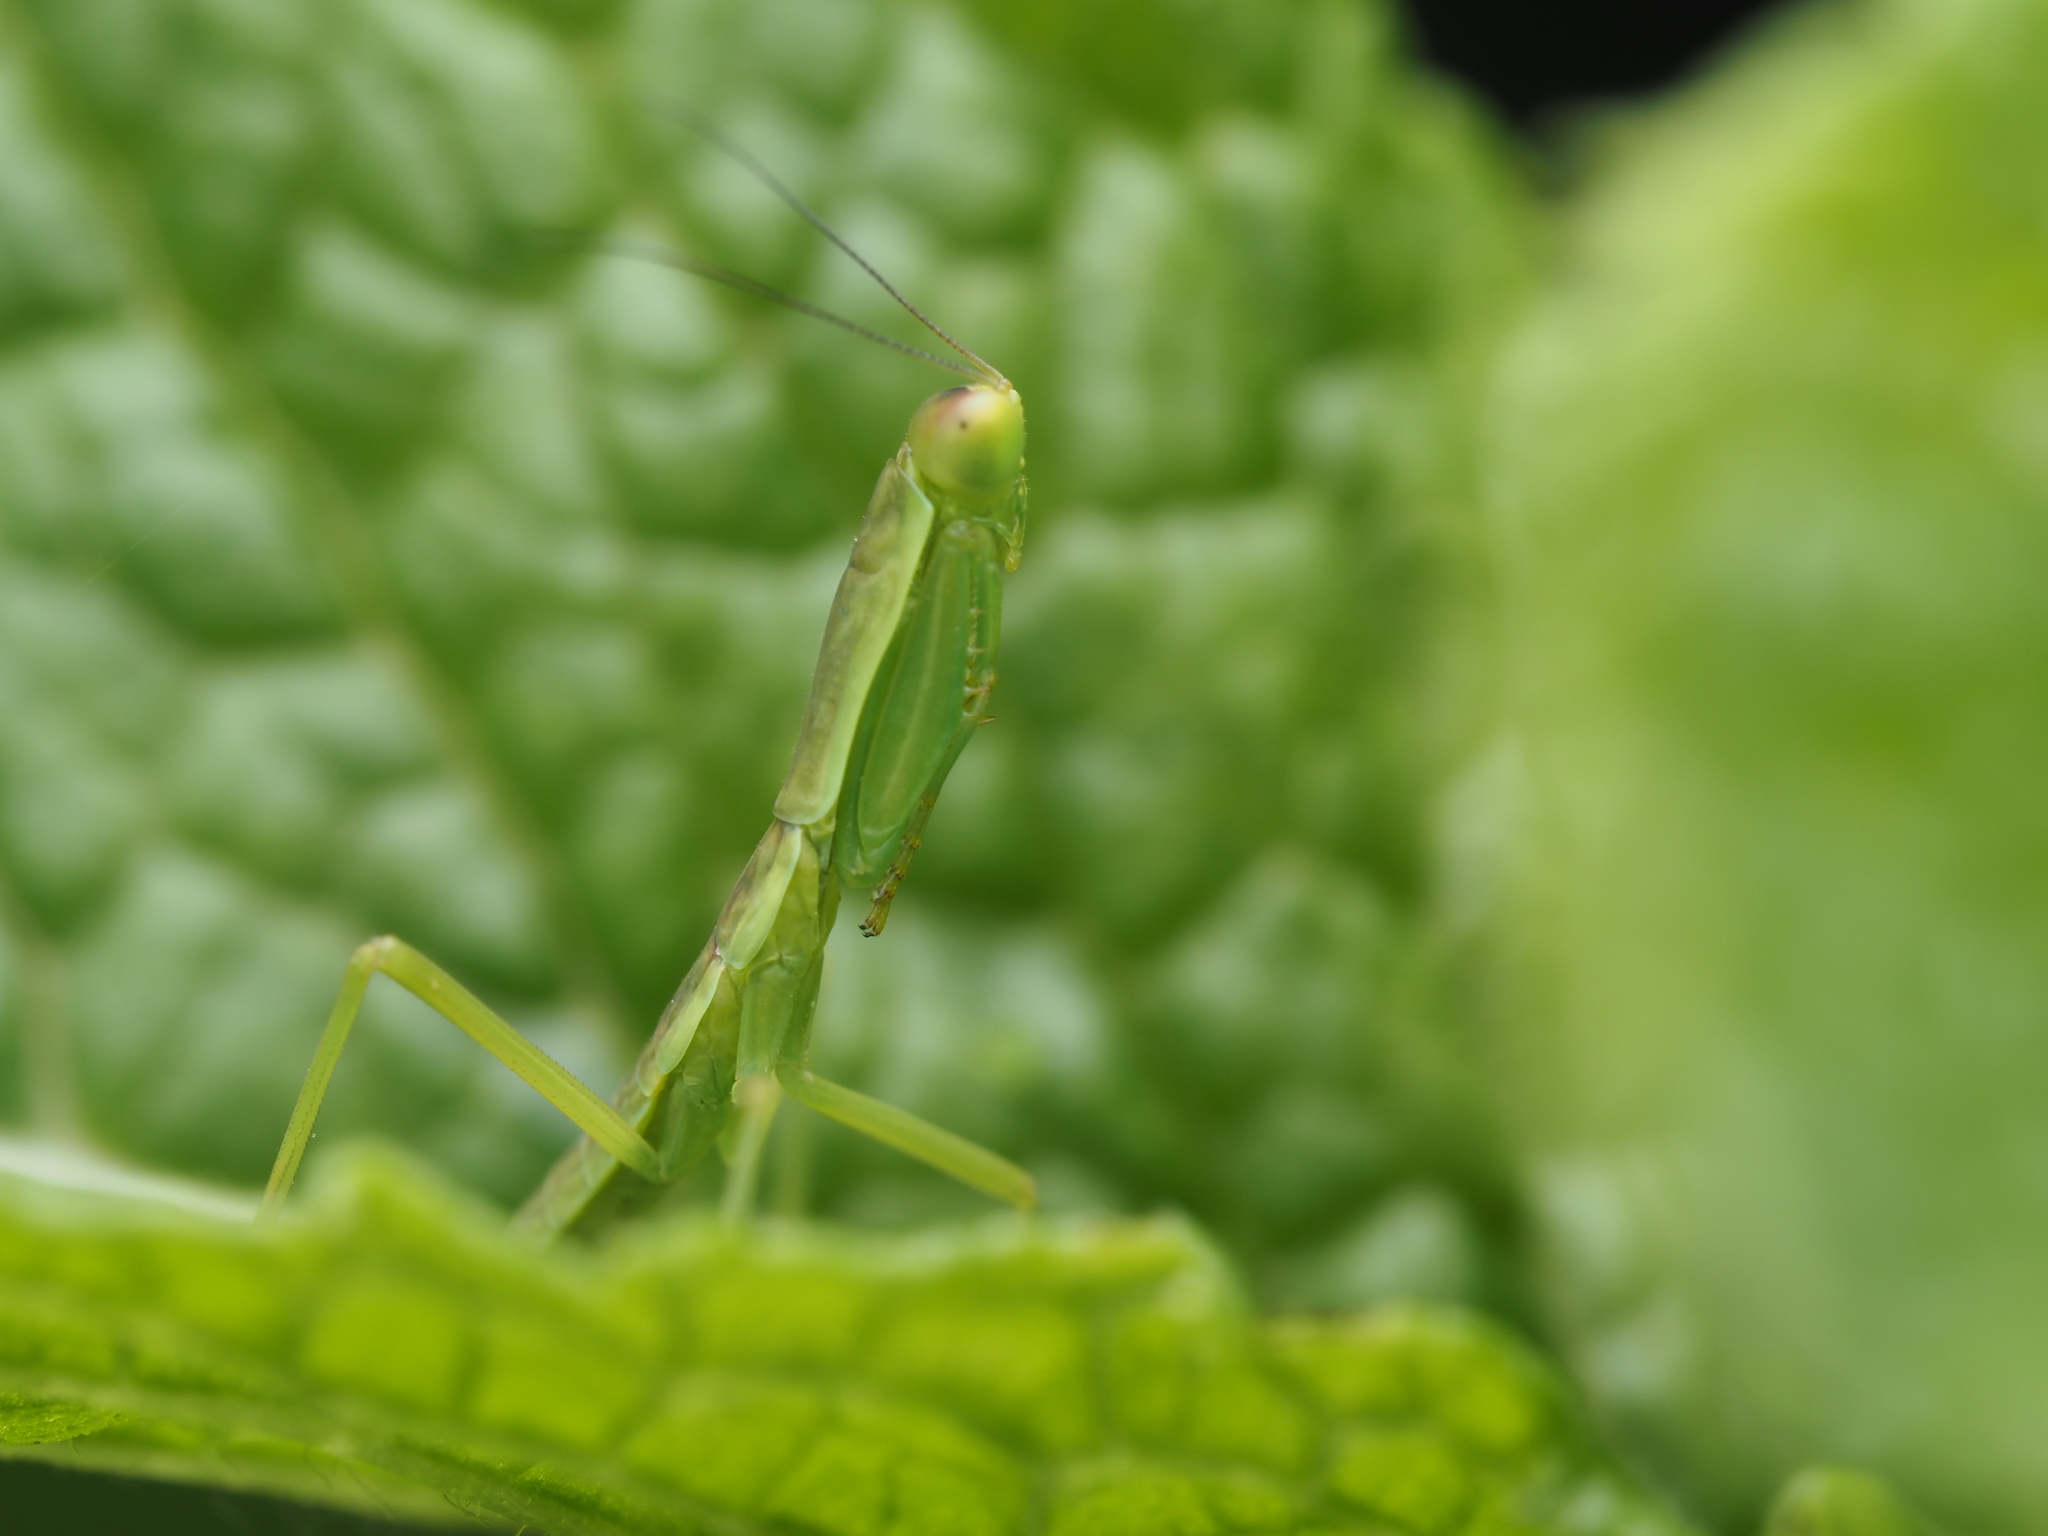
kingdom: Animalia
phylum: Arthropoda
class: Insecta
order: Mantodea
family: Mantidae
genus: Orthodera
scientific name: Orthodera novaezealandiae
